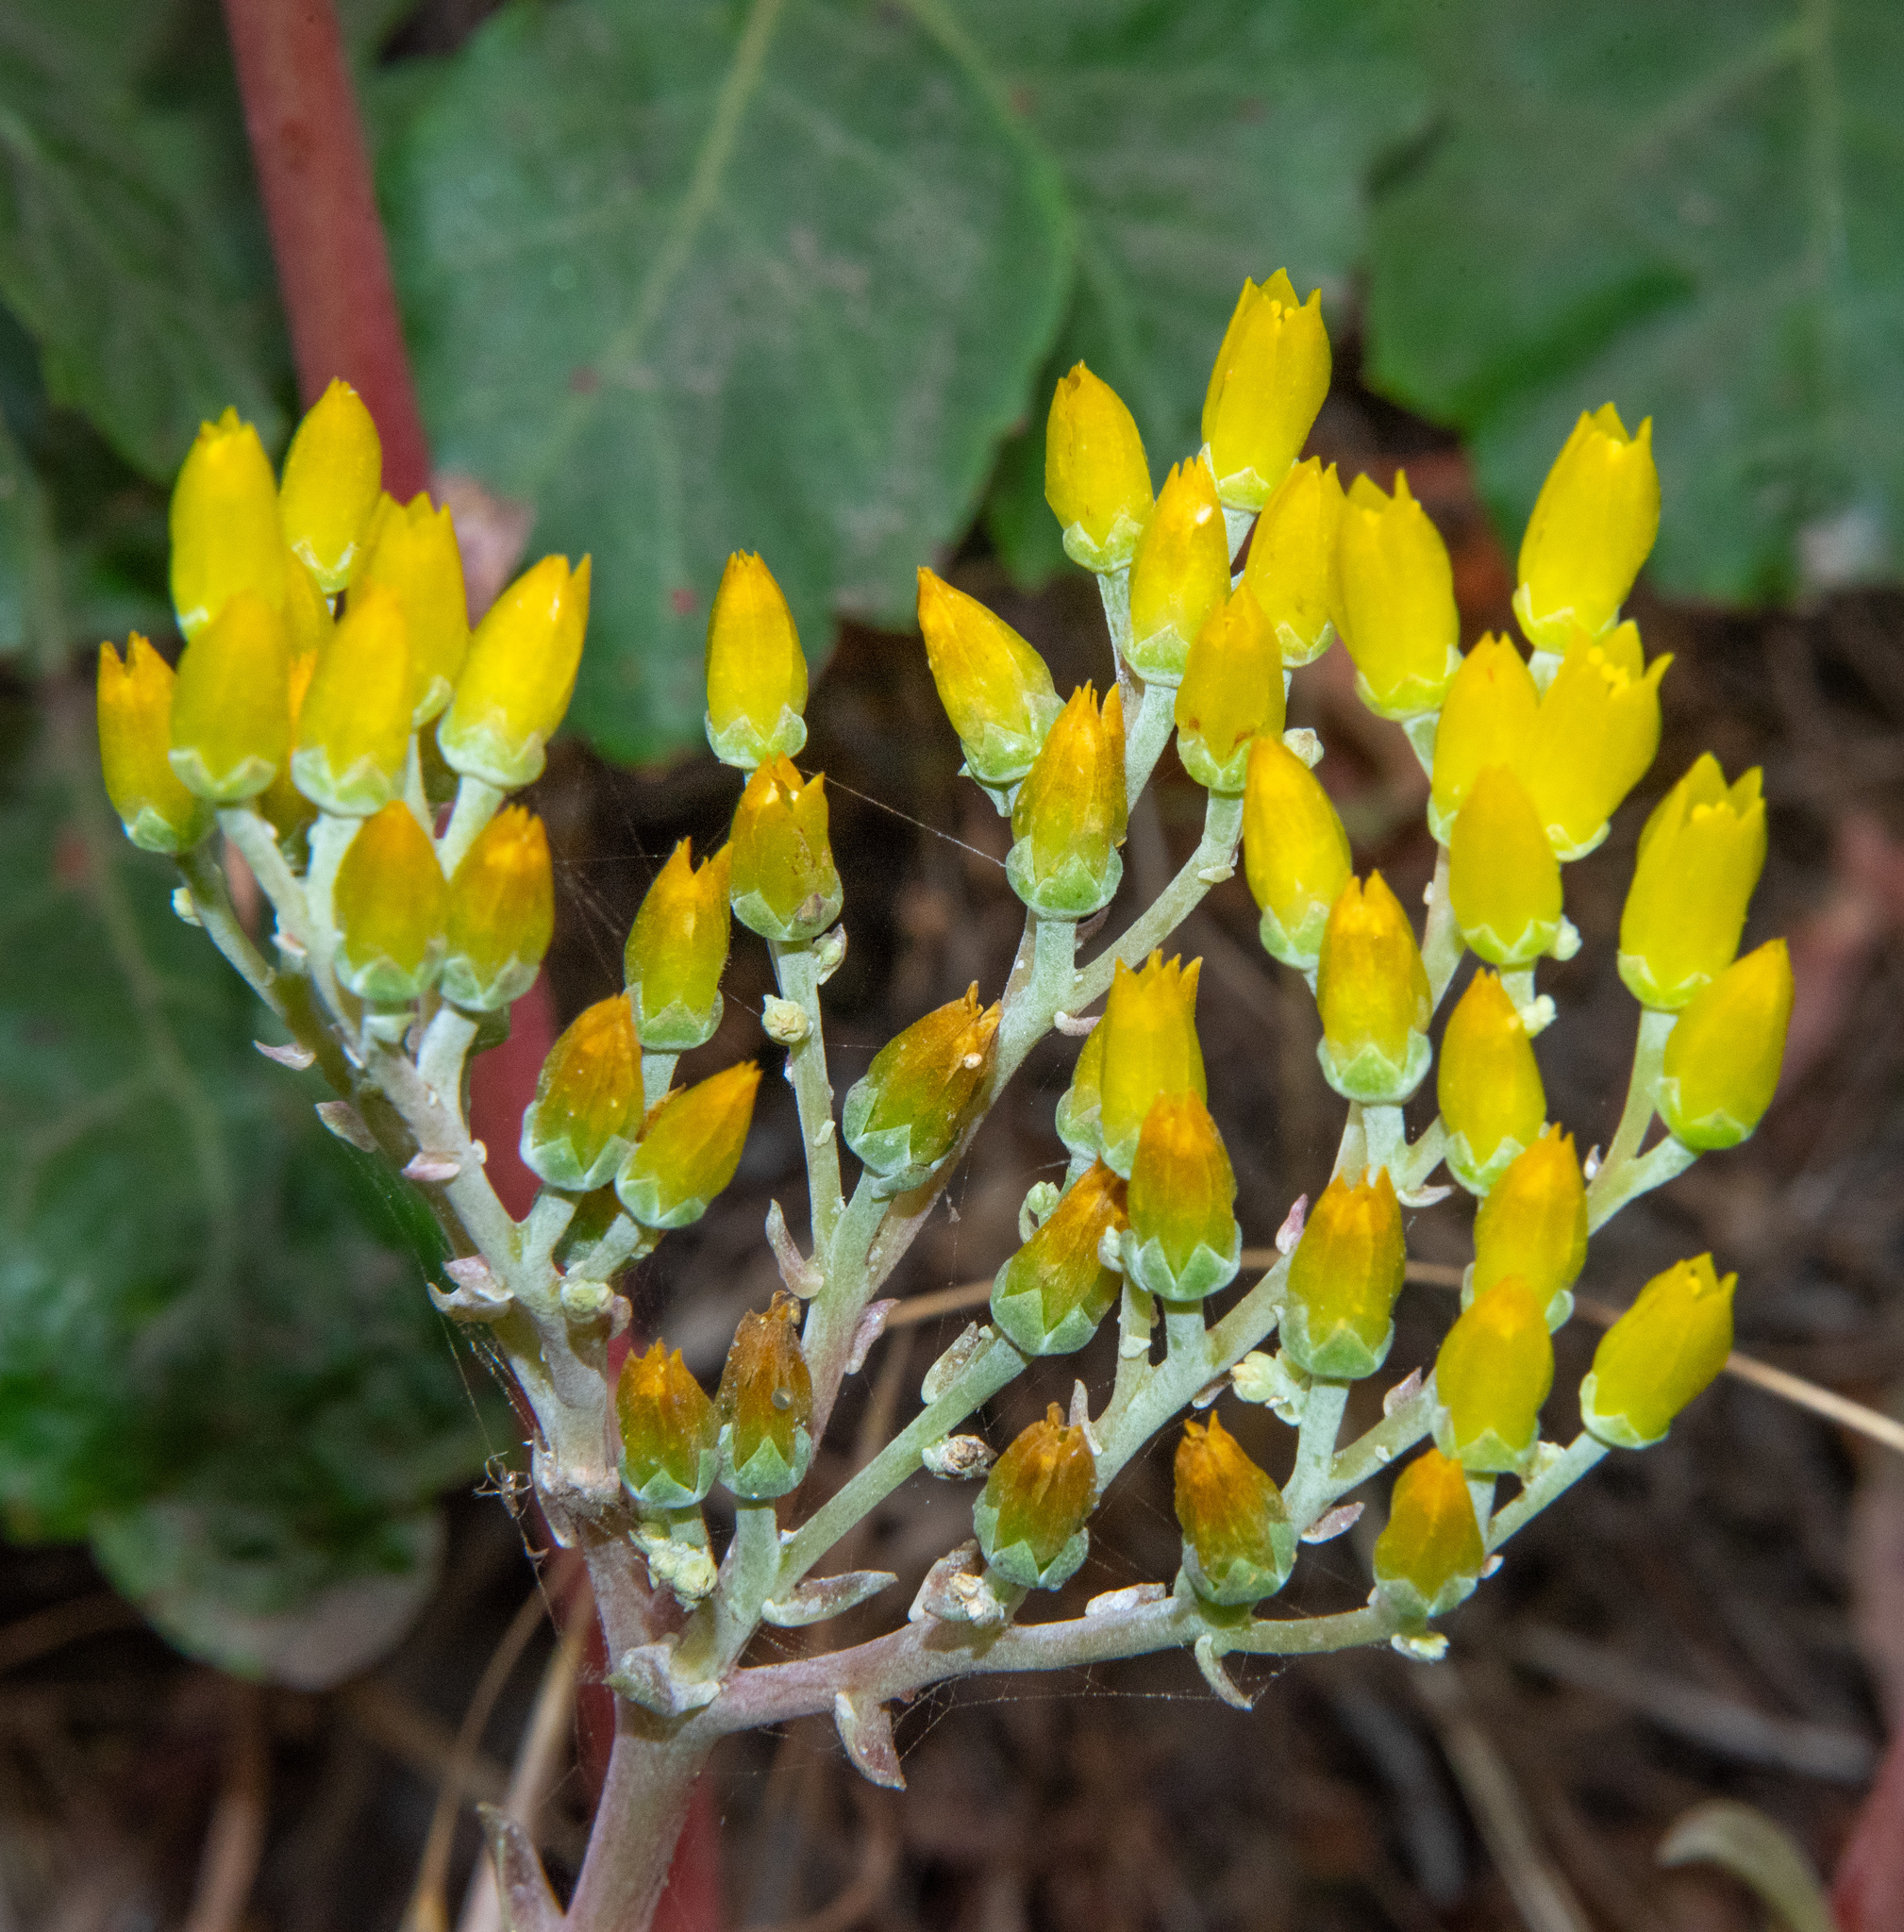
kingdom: Plantae
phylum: Tracheophyta
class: Magnoliopsida
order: Saxifragales
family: Crassulaceae
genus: Dudleya
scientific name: Dudleya caespitosa
